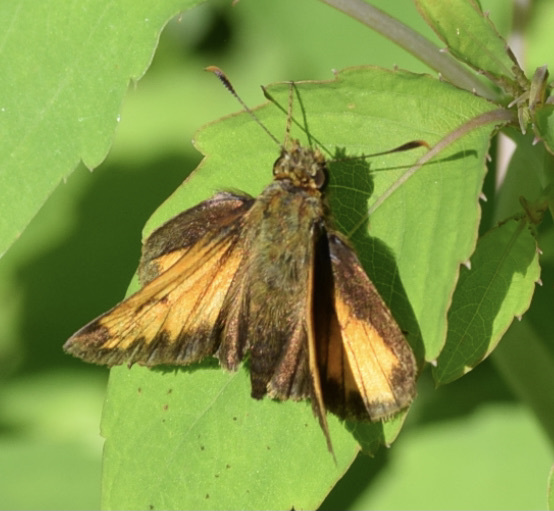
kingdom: Animalia
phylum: Arthropoda
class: Insecta
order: Lepidoptera
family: Hesperiidae
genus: Lon
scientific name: Lon hobomok
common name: Hobomok skipper
